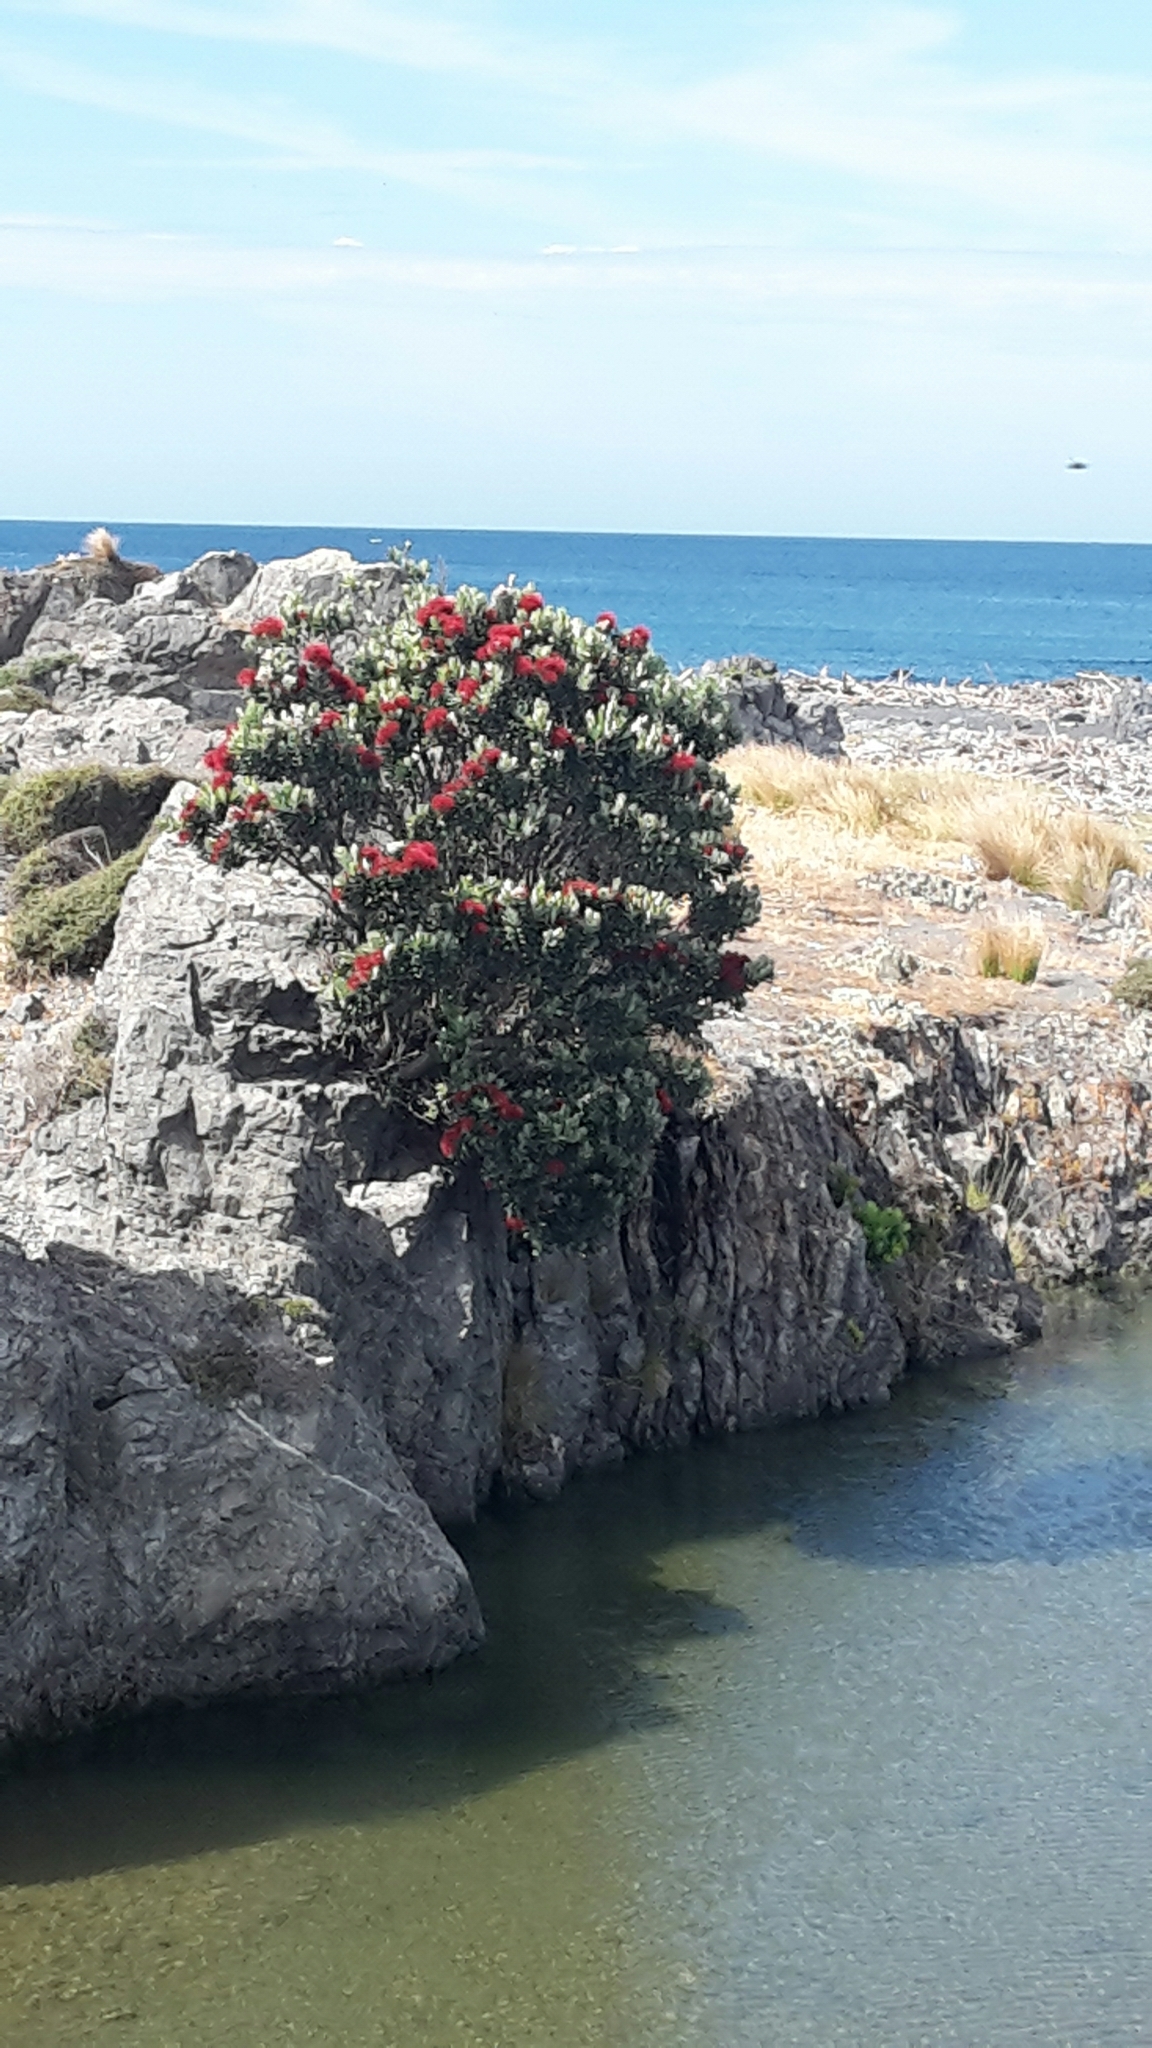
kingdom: Plantae
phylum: Tracheophyta
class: Magnoliopsida
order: Myrtales
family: Myrtaceae
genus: Metrosideros
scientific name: Metrosideros excelsa
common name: New zealand christmastree
